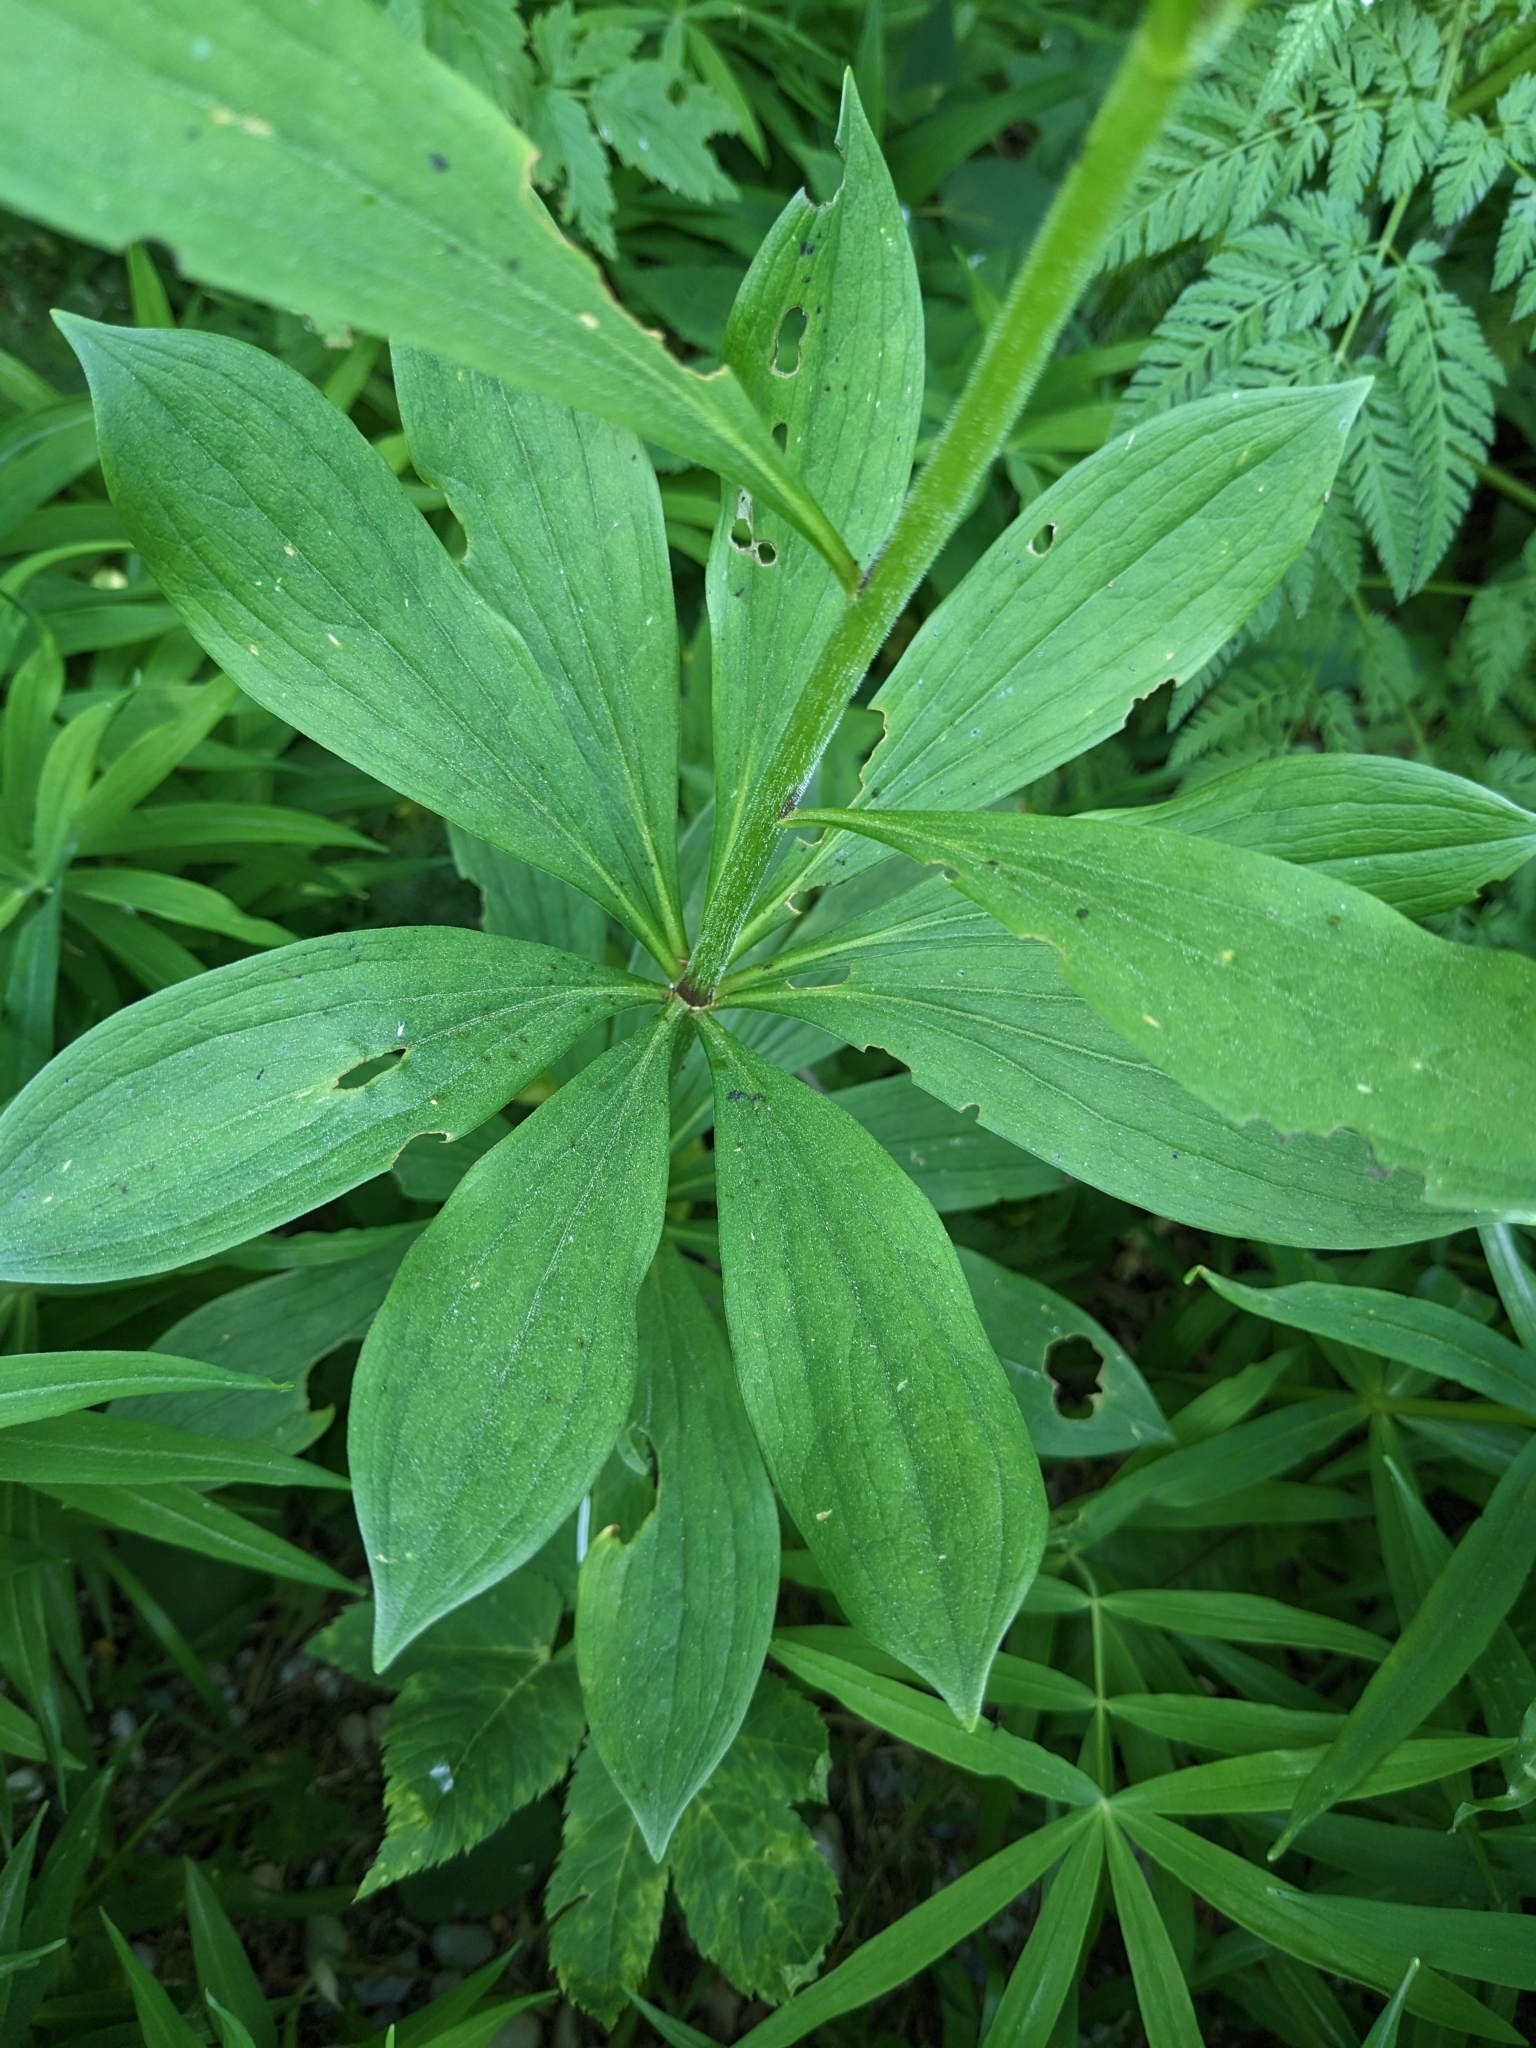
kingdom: Plantae
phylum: Tracheophyta
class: Liliopsida
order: Liliales
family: Liliaceae
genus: Lilium
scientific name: Lilium martagon
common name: Martagon lily
